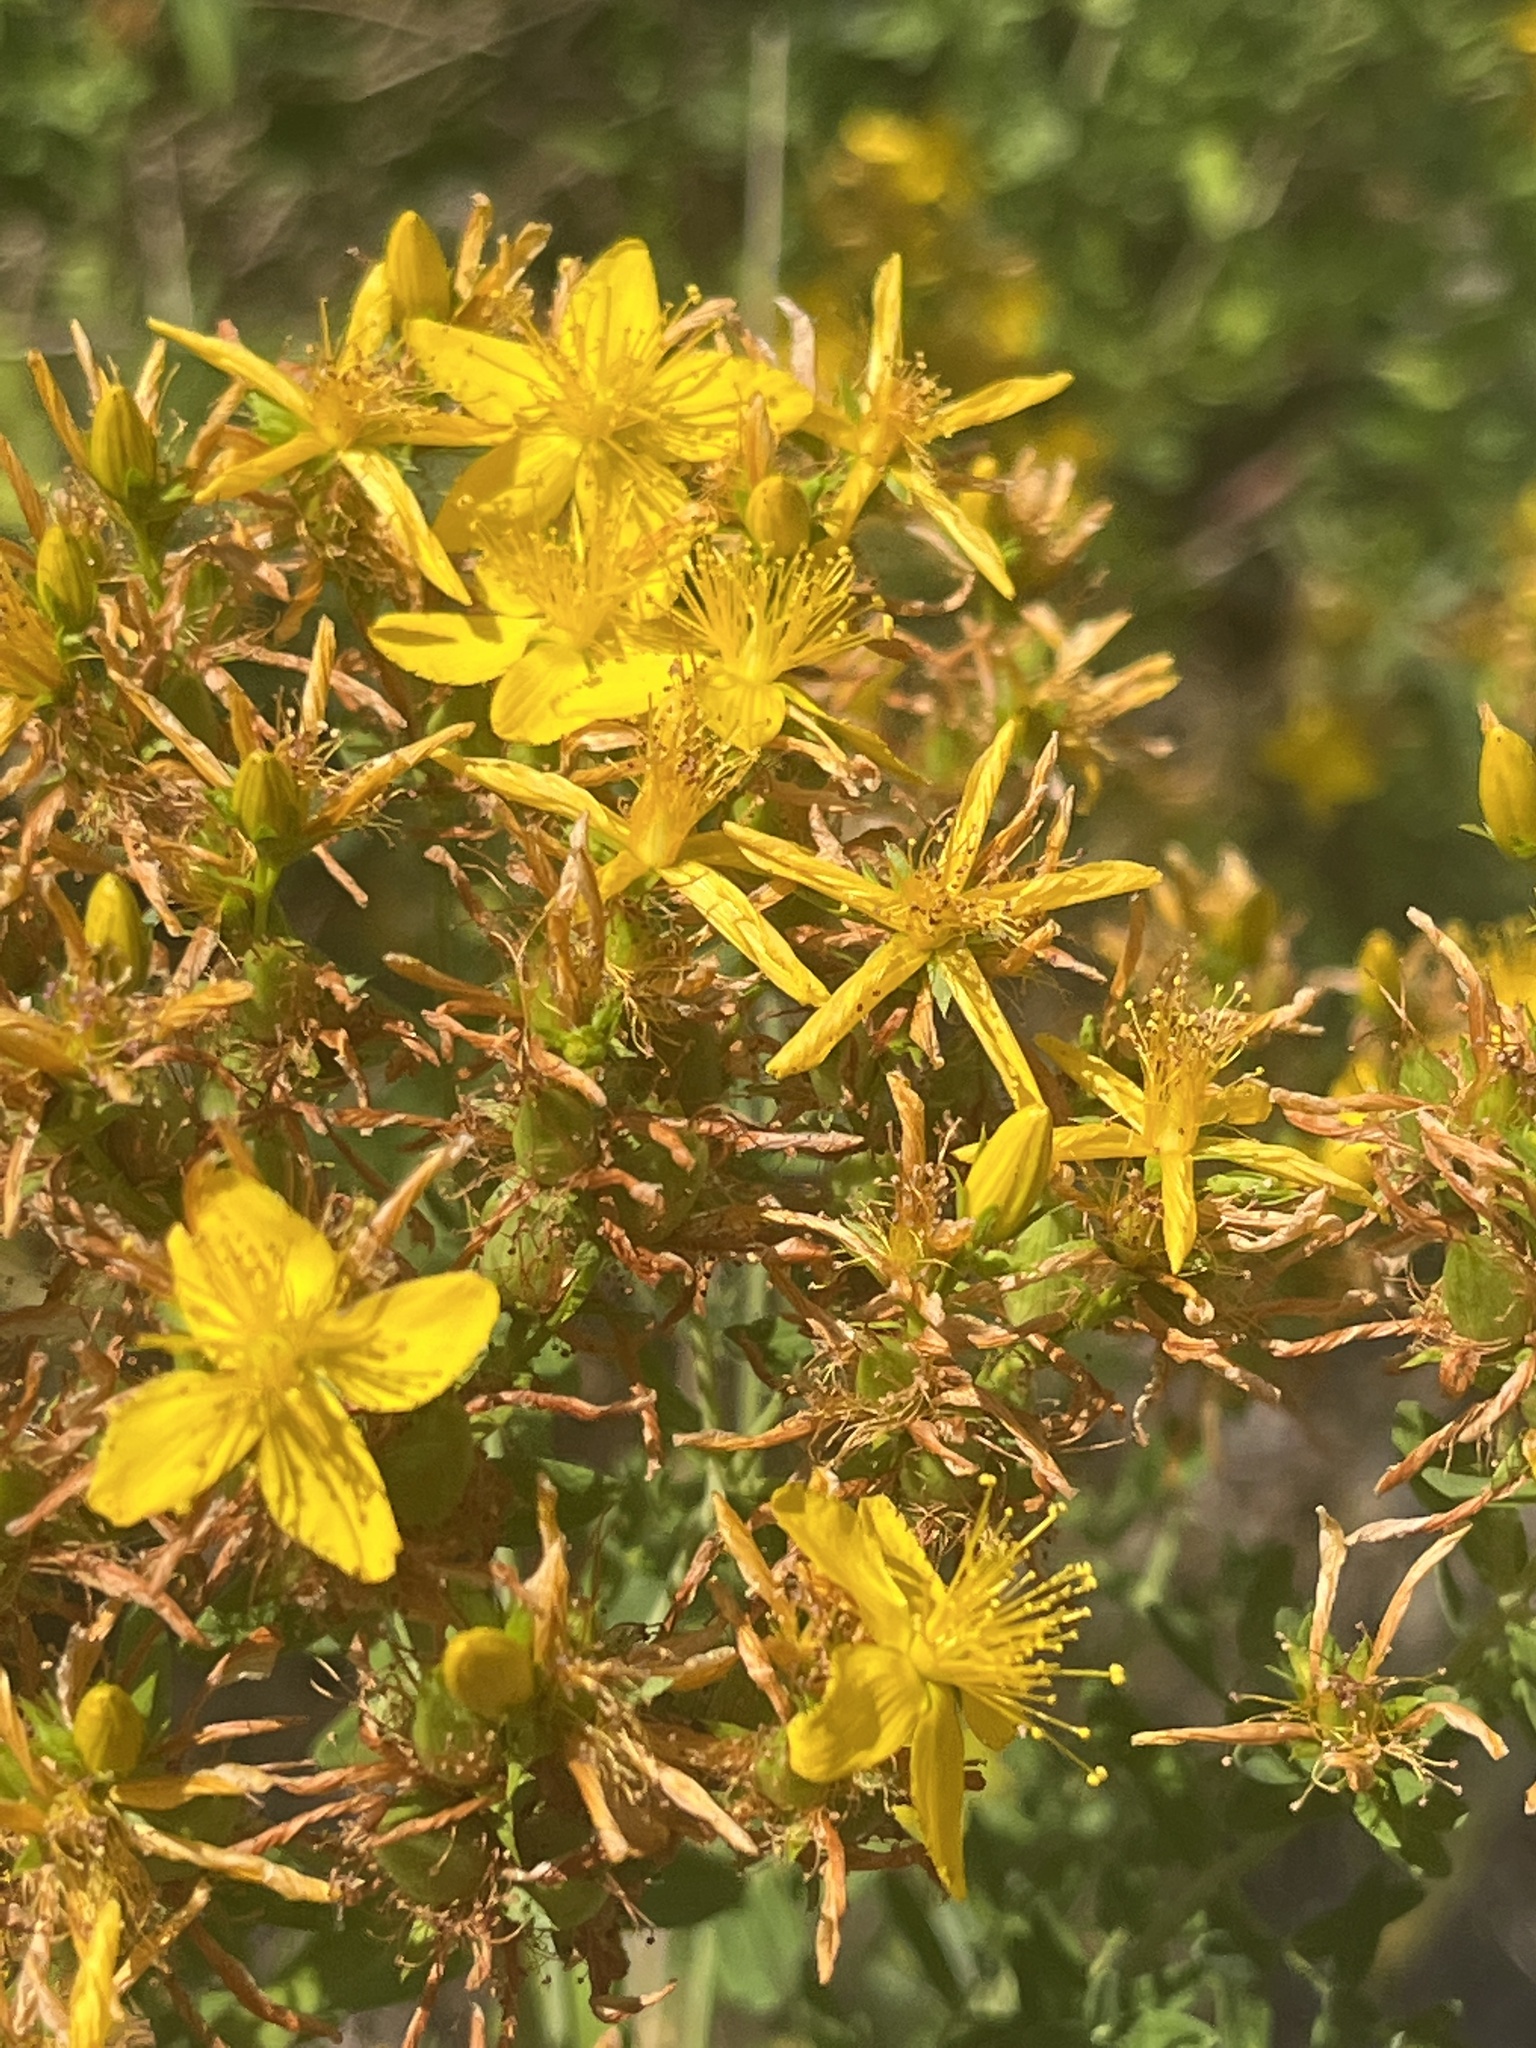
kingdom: Plantae
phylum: Tracheophyta
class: Magnoliopsida
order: Malpighiales
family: Hypericaceae
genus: Hypericum
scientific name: Hypericum perforatum
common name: Common st. johnswort
